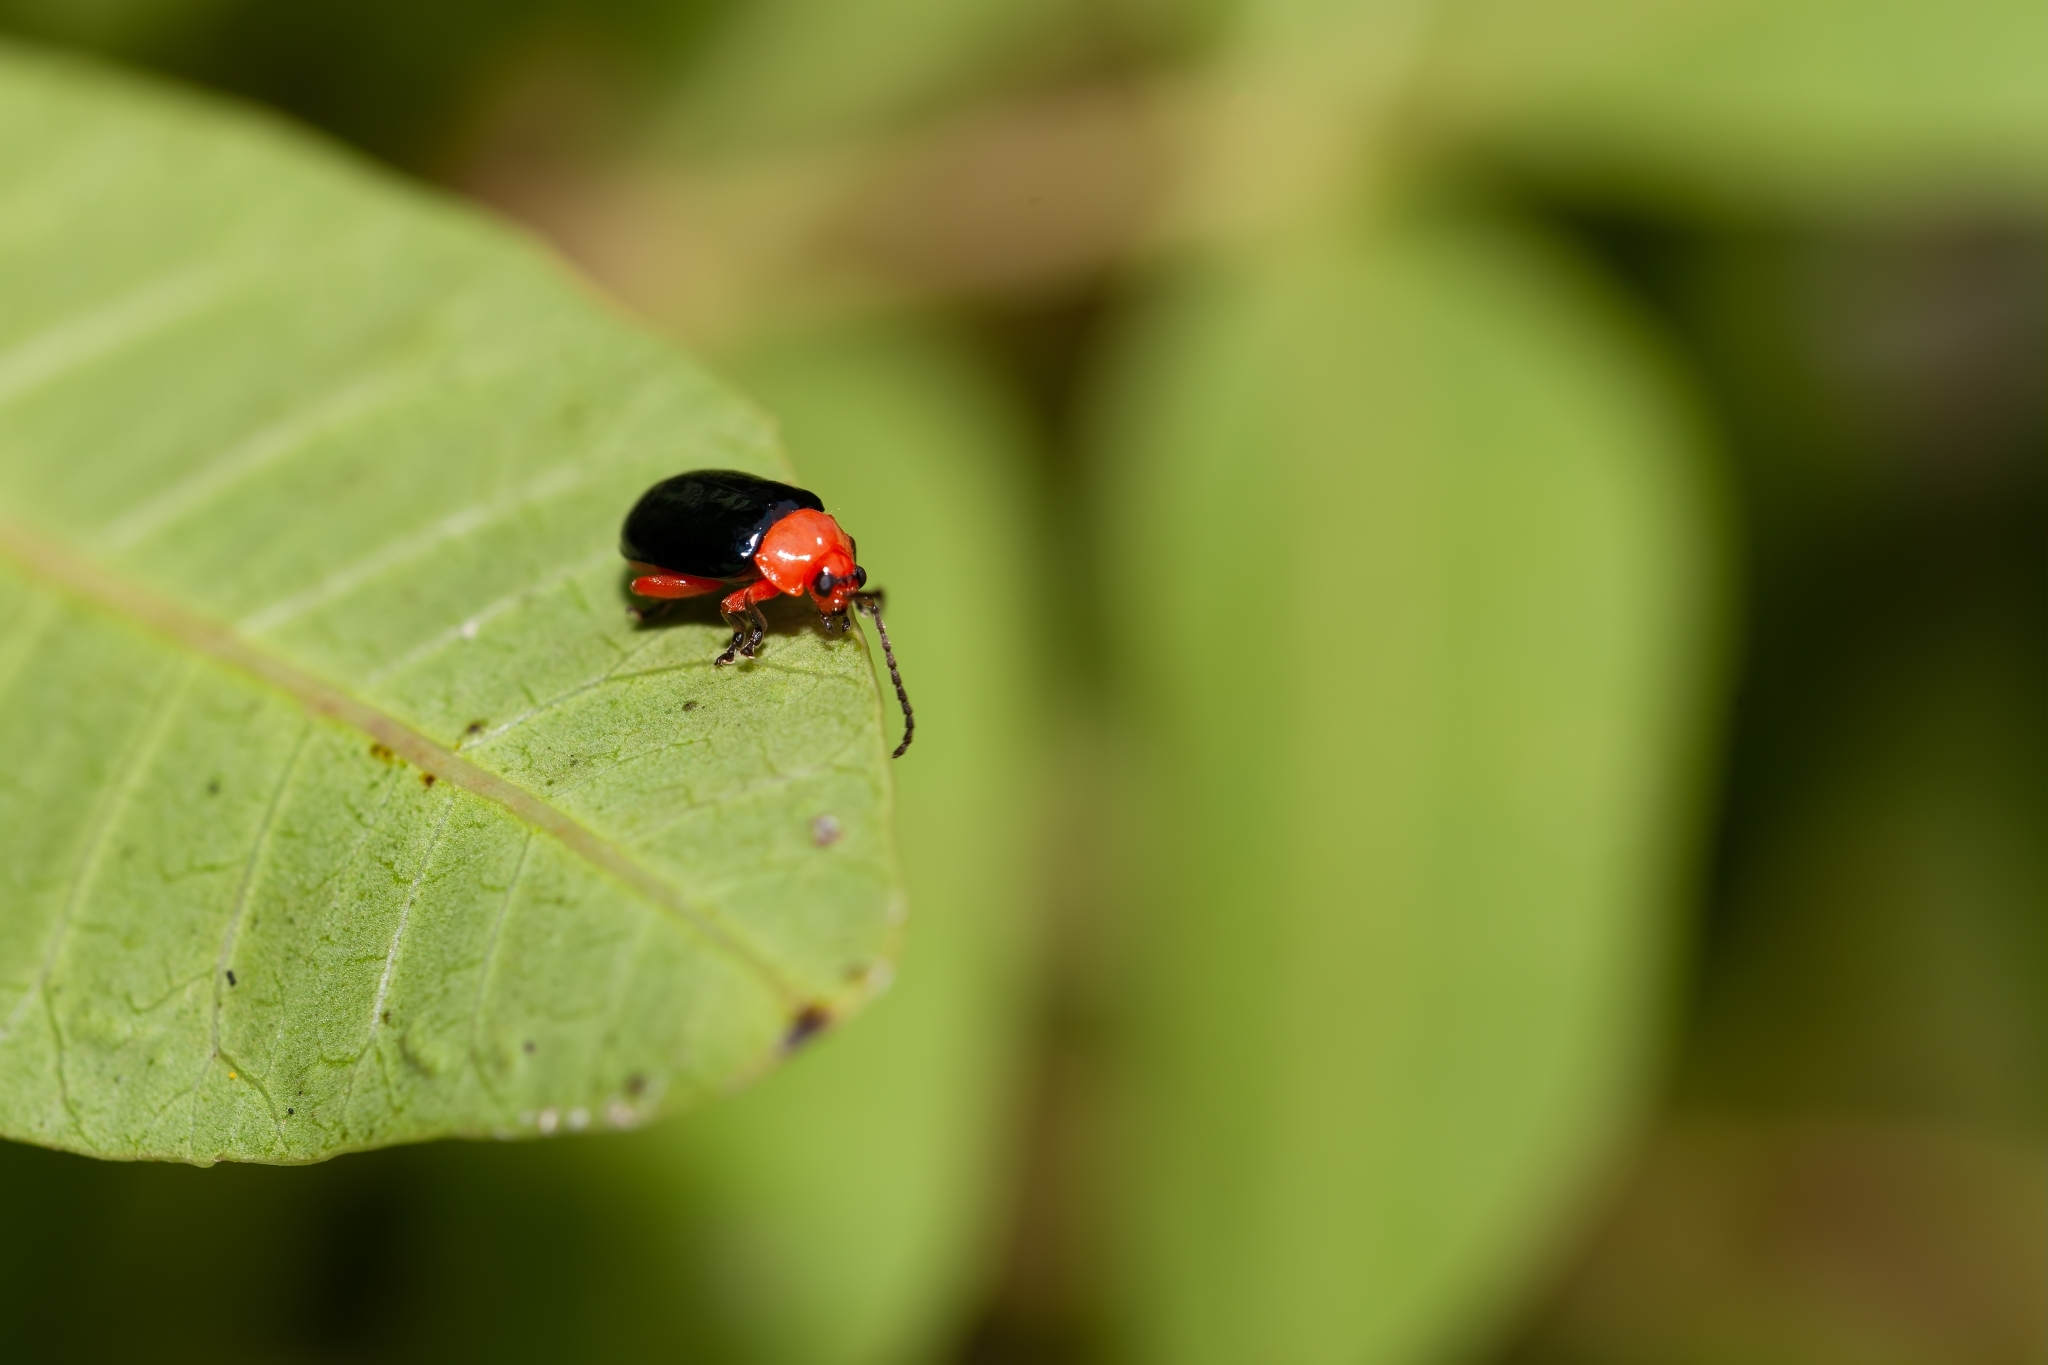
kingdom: Animalia
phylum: Arthropoda
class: Insecta
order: Coleoptera
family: Chrysomelidae
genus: Asphaera
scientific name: Asphaera lustrans
